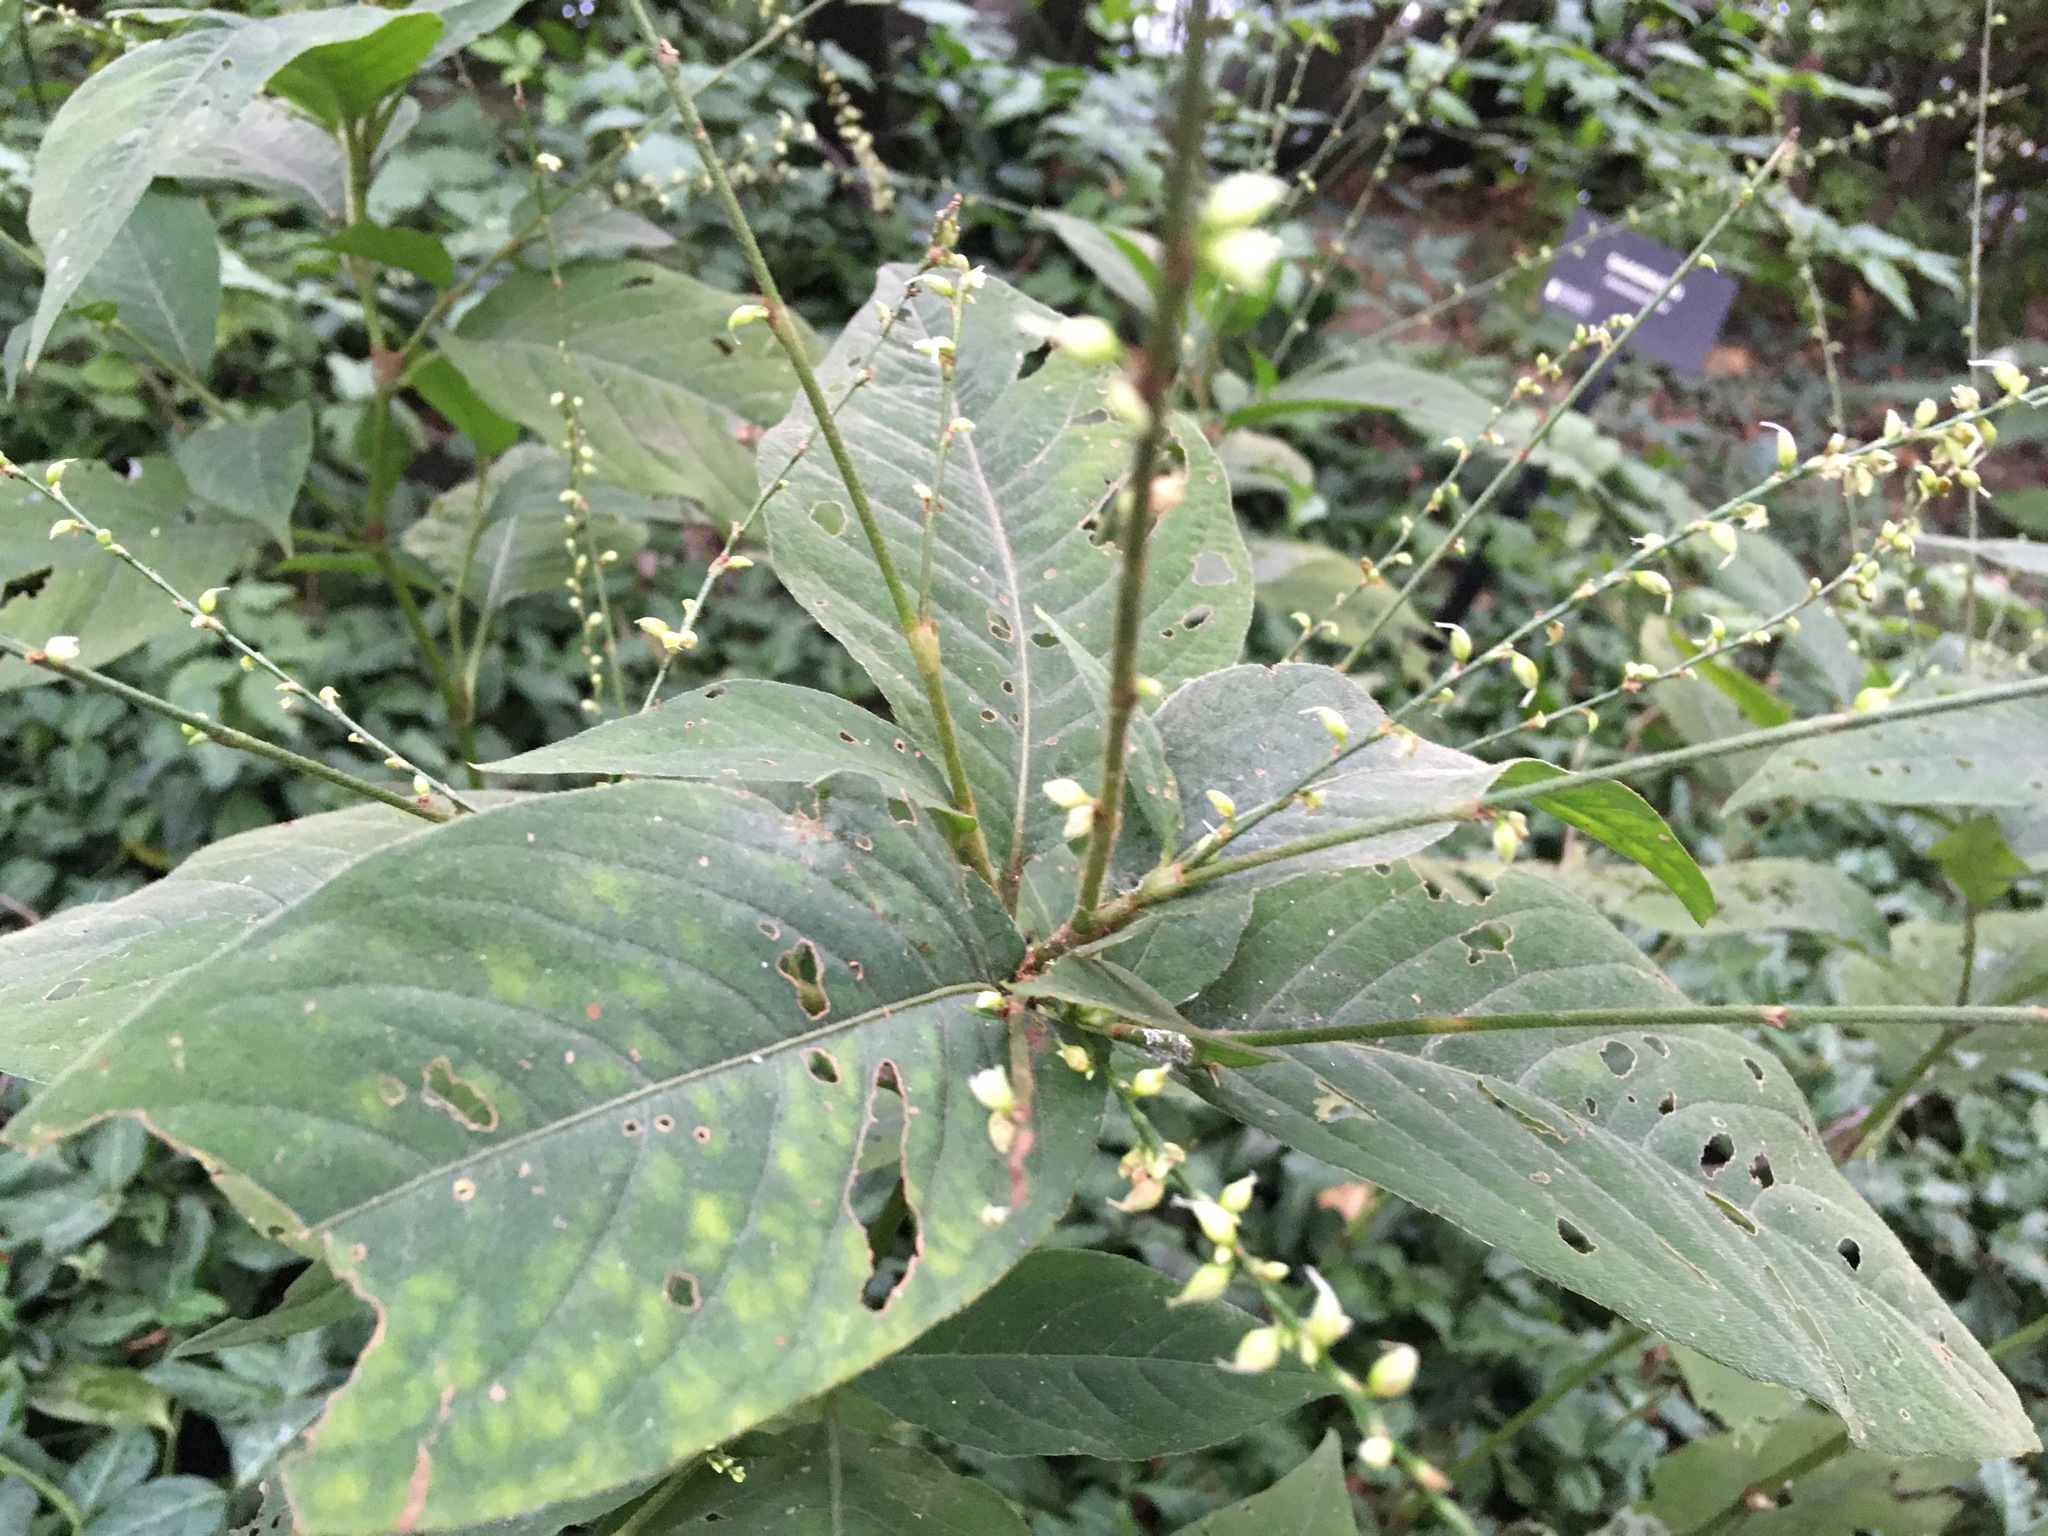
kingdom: Plantae
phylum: Tracheophyta
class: Magnoliopsida
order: Caryophyllales
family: Polygonaceae
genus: Persicaria
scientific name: Persicaria virginiana
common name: Jumpseed
